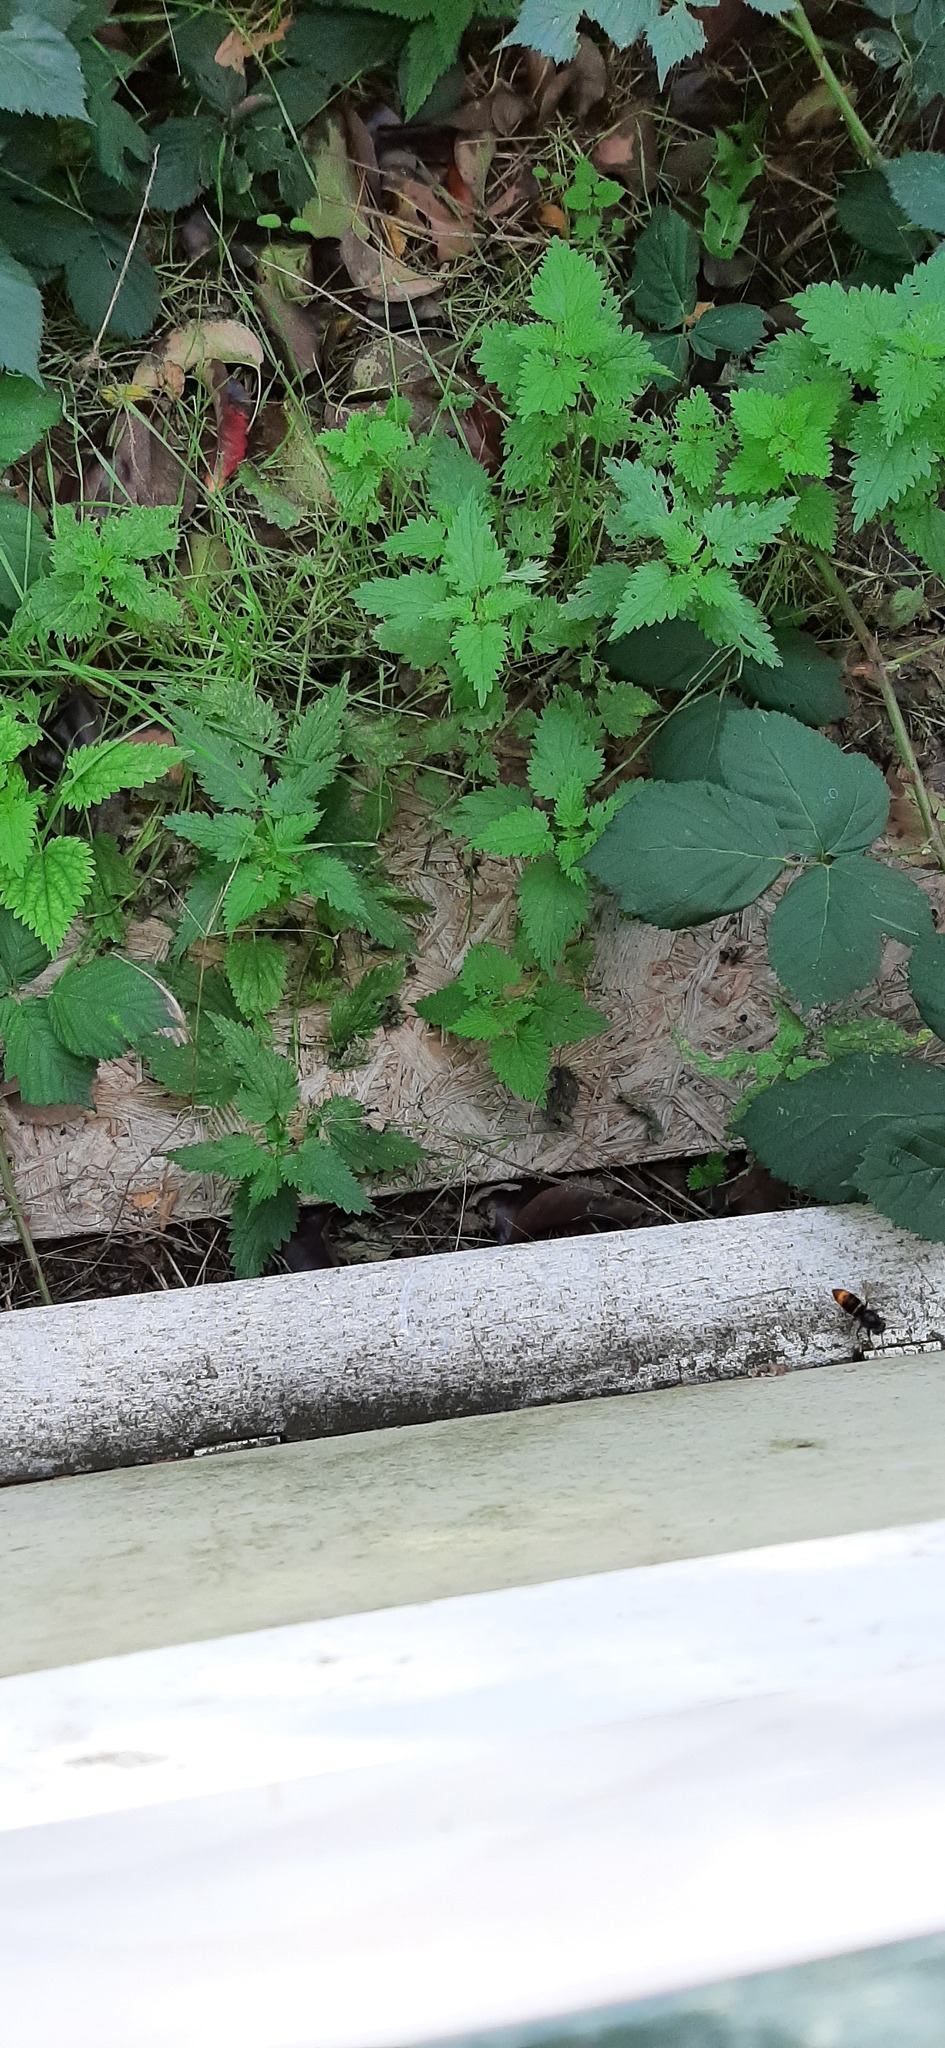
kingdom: Animalia
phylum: Arthropoda
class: Insecta
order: Hymenoptera
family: Vespidae
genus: Vespa
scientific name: Vespa velutina
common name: Asian hornet
